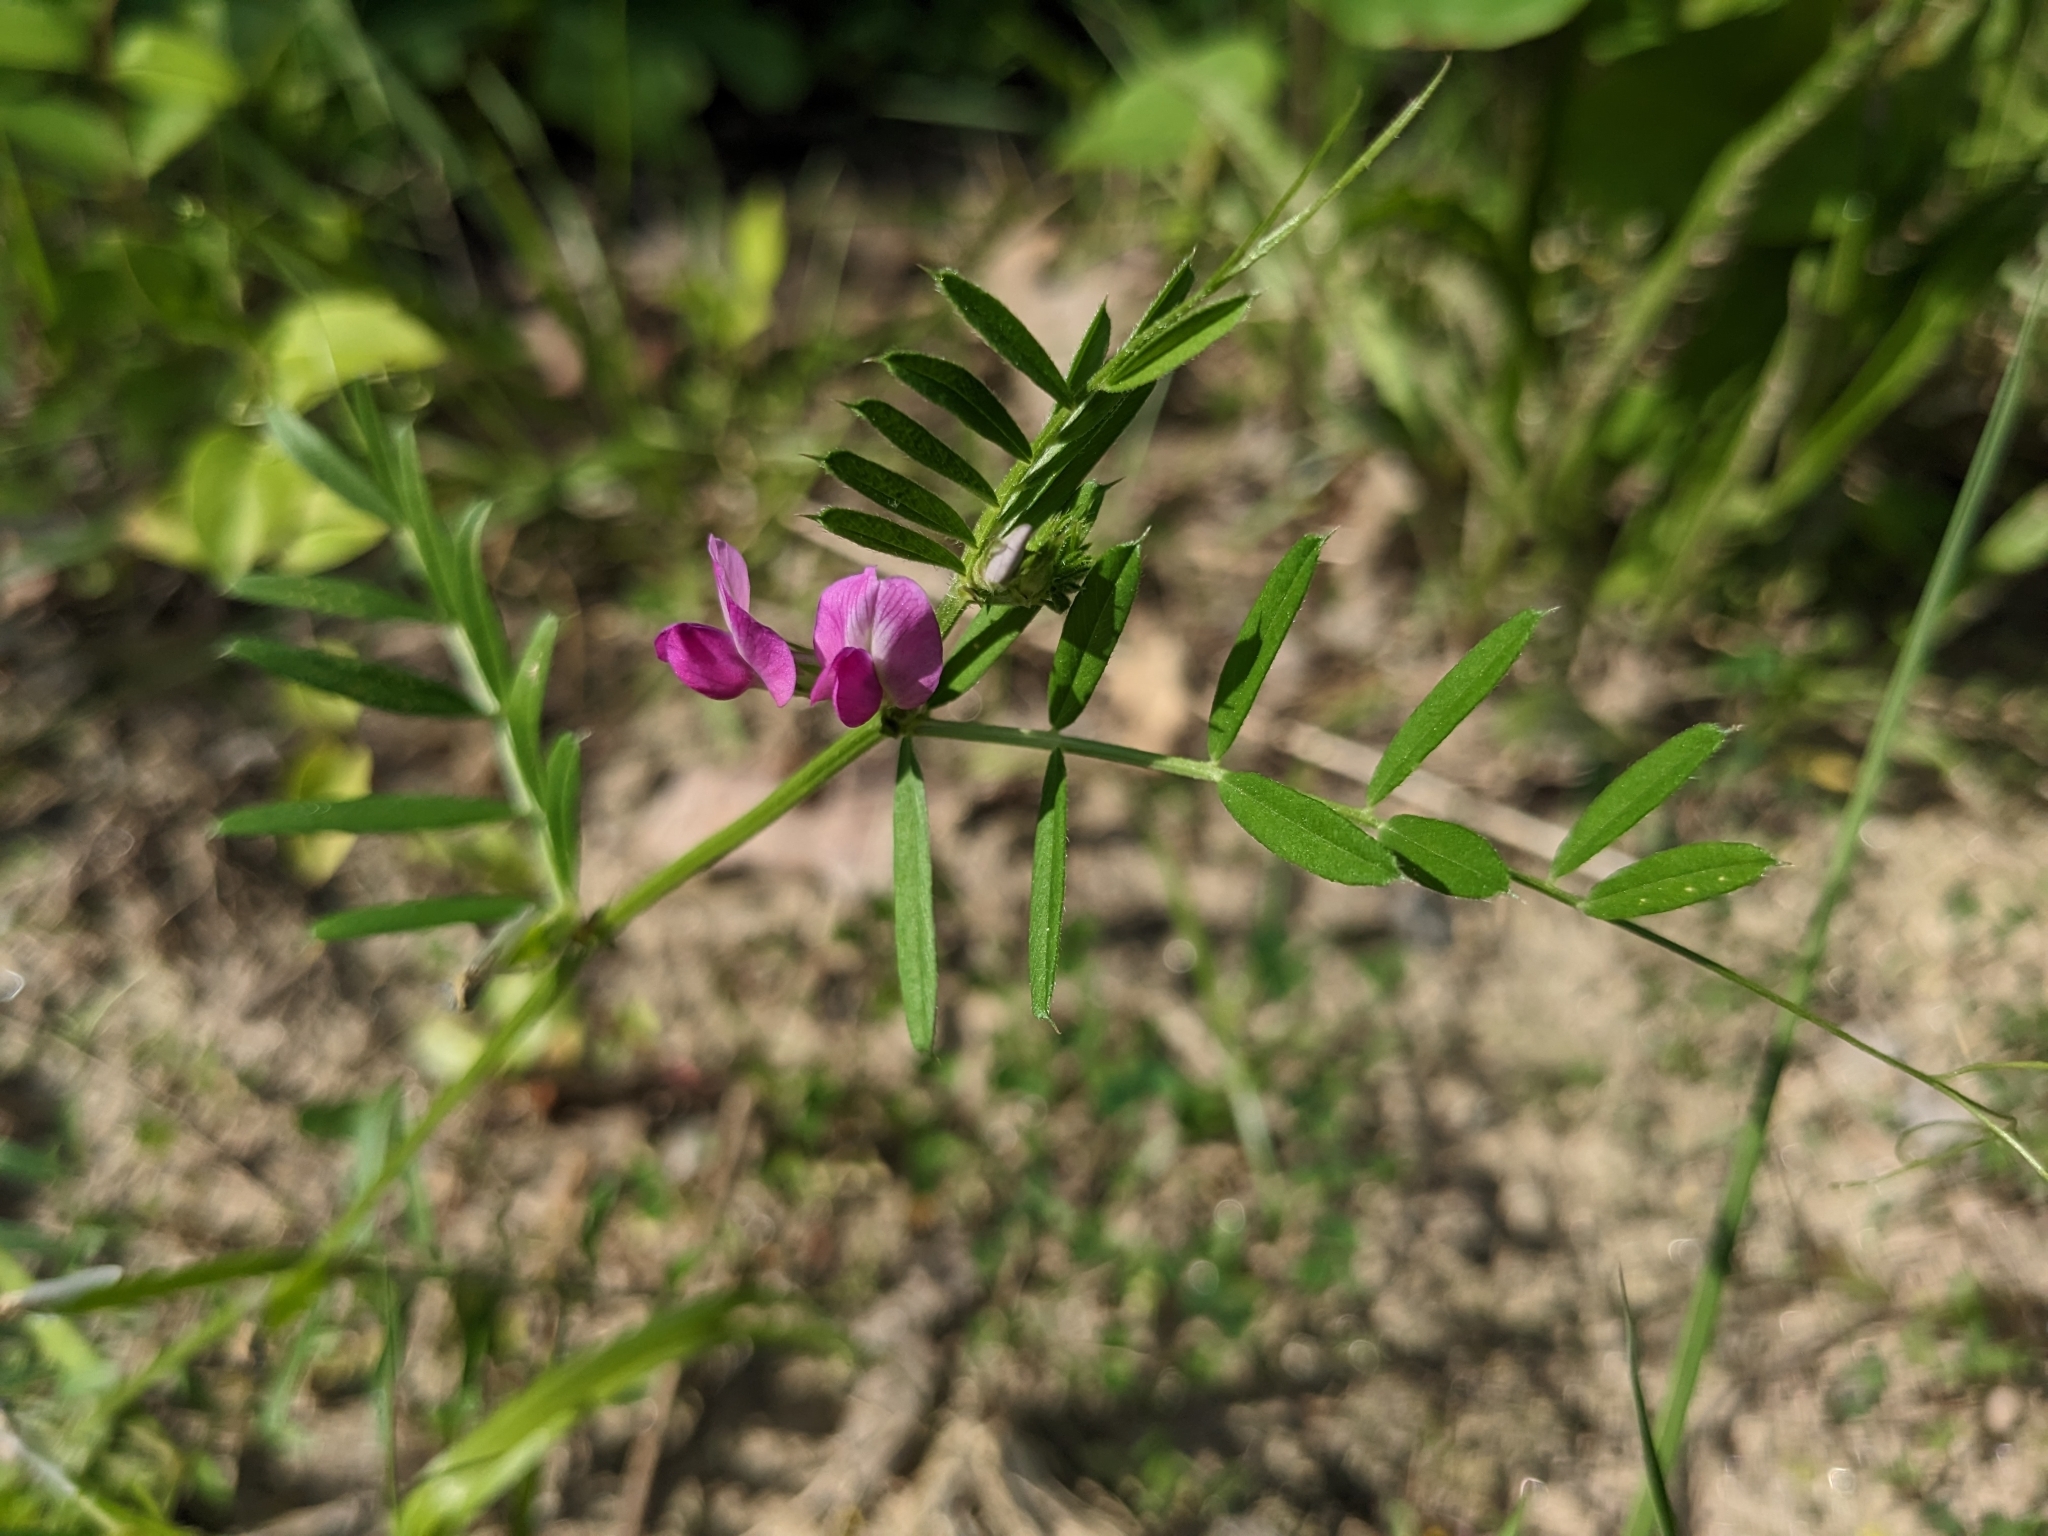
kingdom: Plantae
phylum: Tracheophyta
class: Magnoliopsida
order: Fabales
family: Fabaceae
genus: Vicia
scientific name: Vicia sativa
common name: Garden vetch
